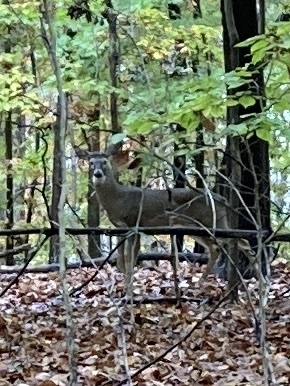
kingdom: Animalia
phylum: Chordata
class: Mammalia
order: Artiodactyla
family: Cervidae
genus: Odocoileus
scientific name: Odocoileus virginianus
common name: White-tailed deer
